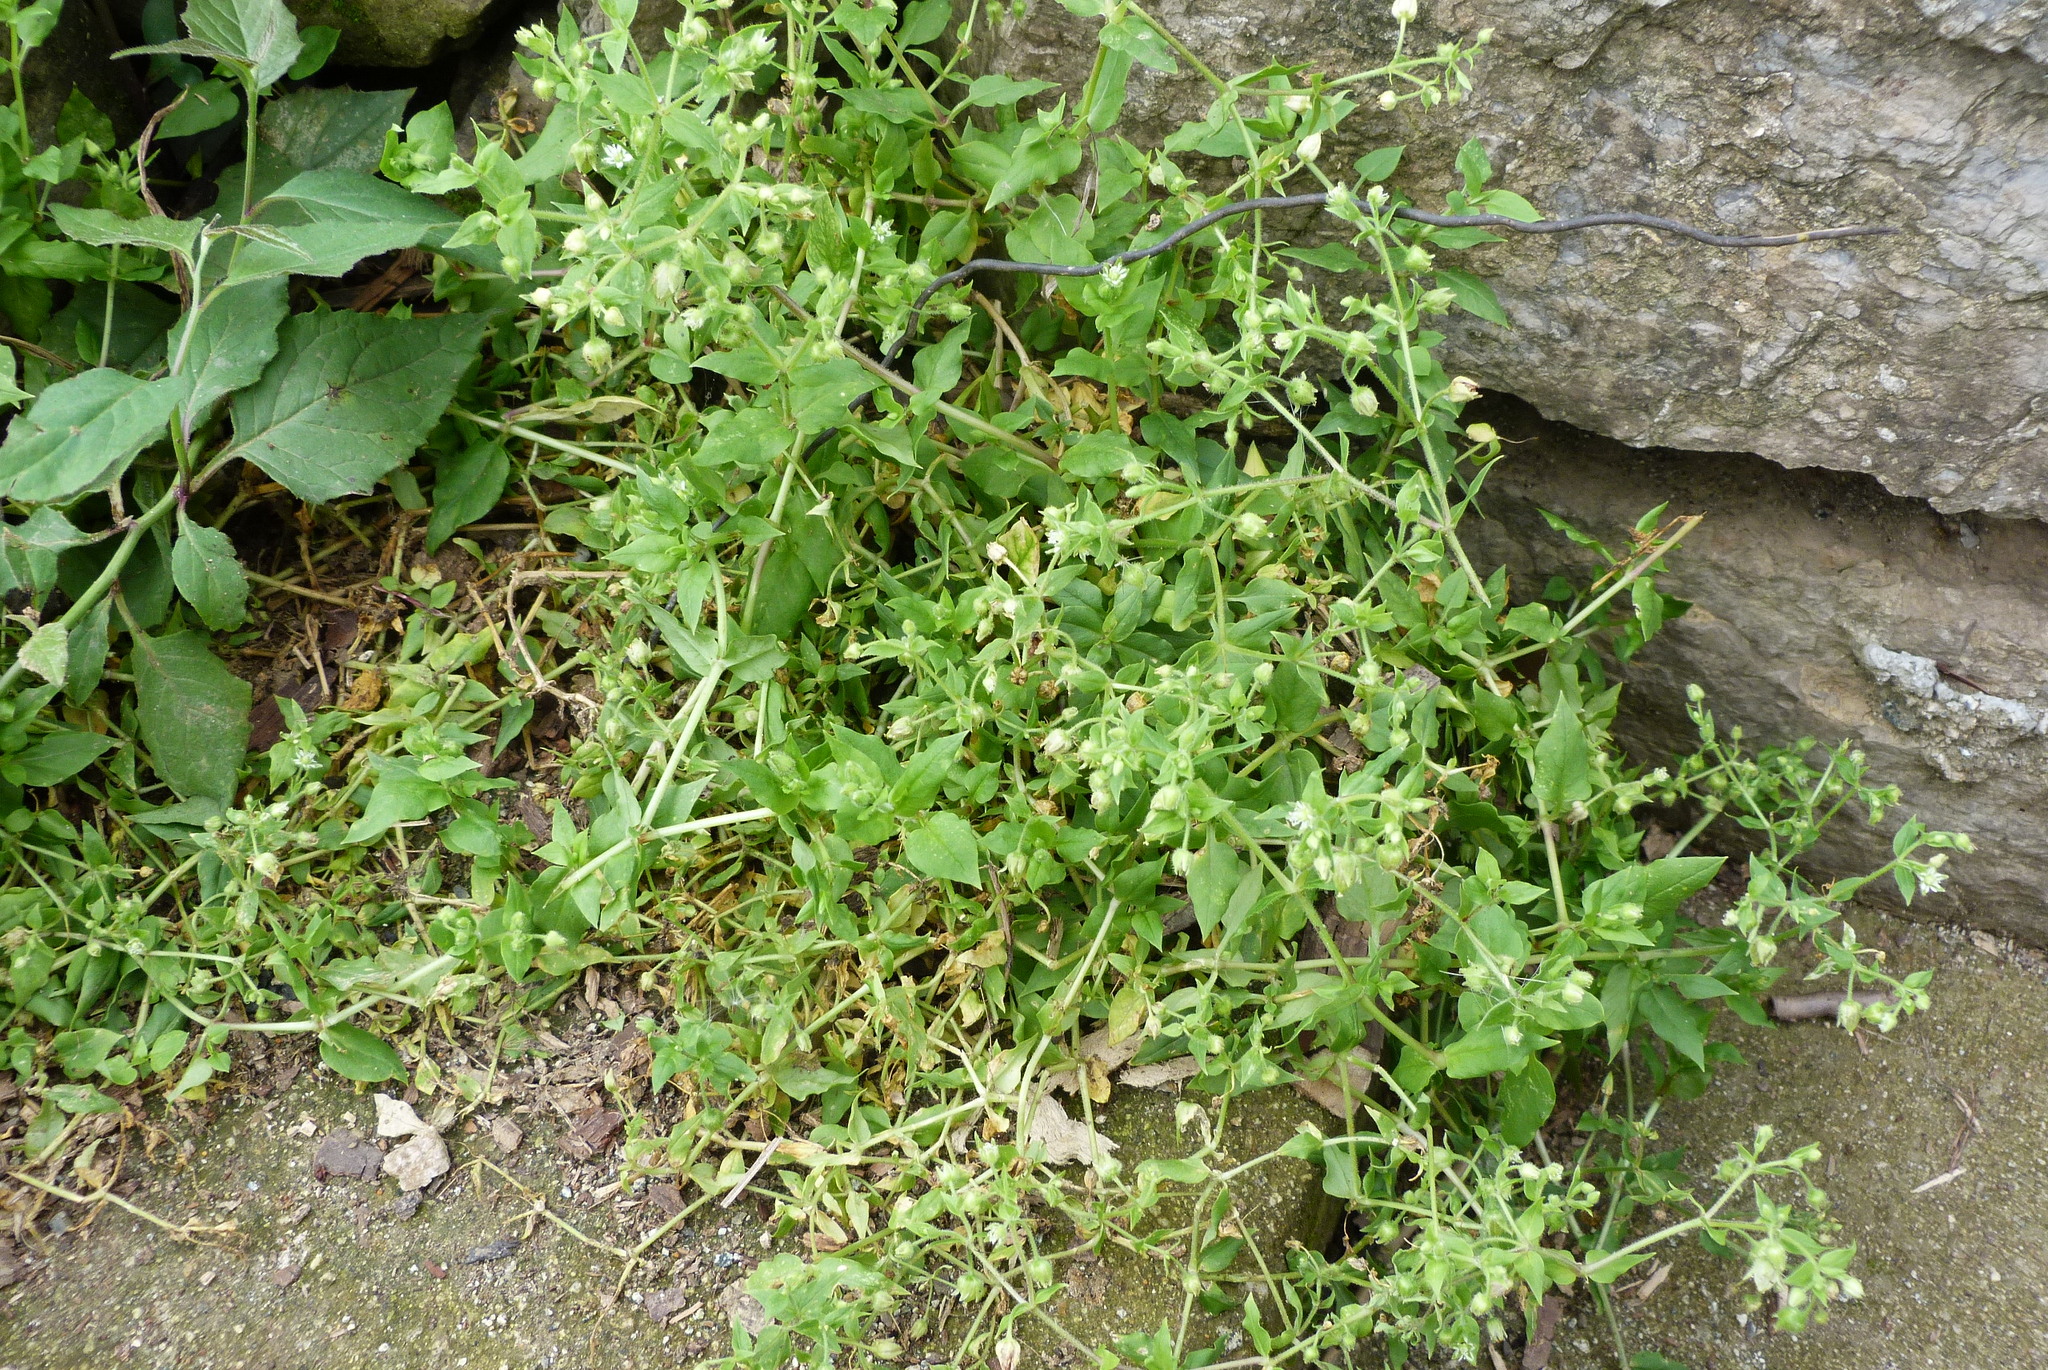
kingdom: Plantae
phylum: Tracheophyta
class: Magnoliopsida
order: Caryophyllales
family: Caryophyllaceae
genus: Stellaria
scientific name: Stellaria media
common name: Common chickweed
